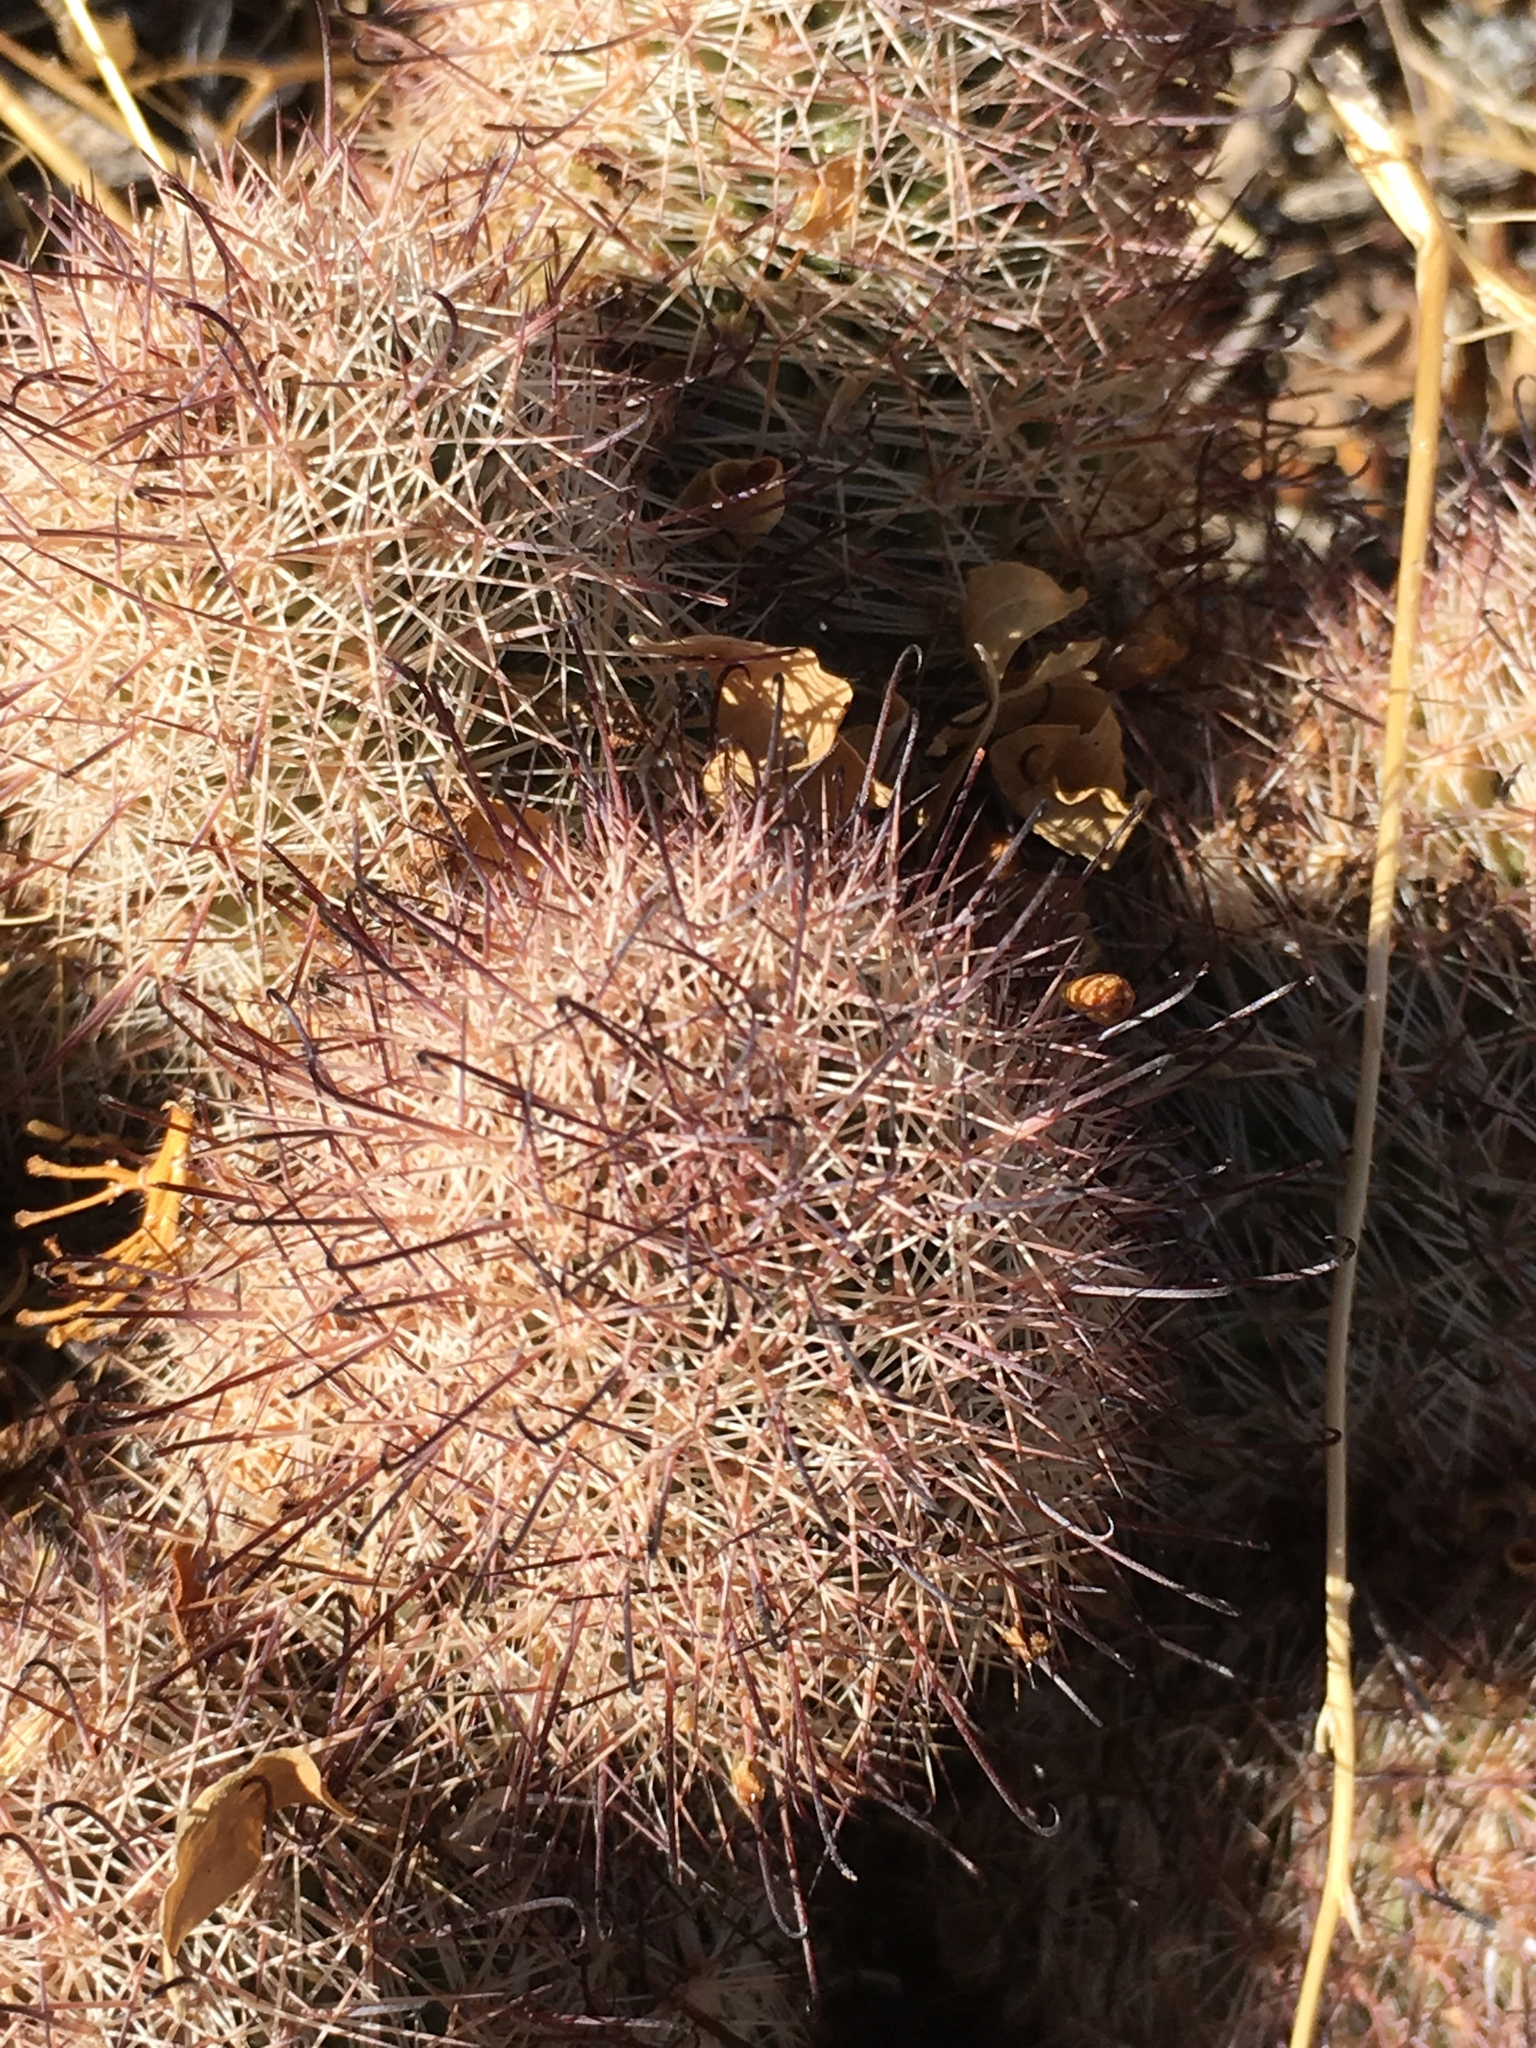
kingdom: Plantae
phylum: Tracheophyta
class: Magnoliopsida
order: Caryophyllales
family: Cactaceae
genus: Cochemiea
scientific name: Cochemiea dioica
